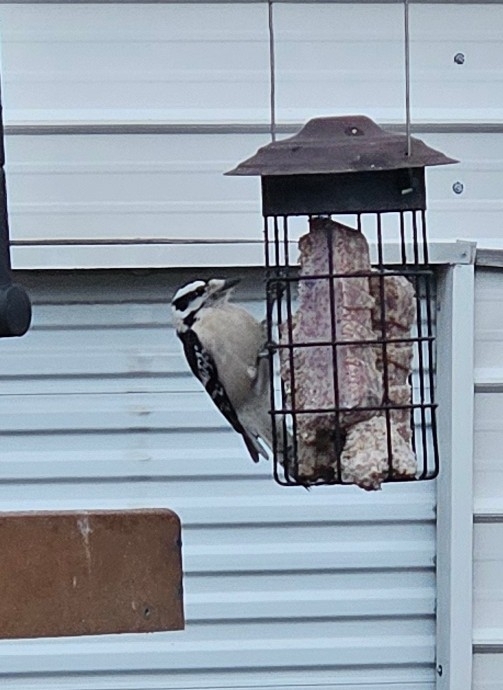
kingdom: Animalia
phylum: Chordata
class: Aves
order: Piciformes
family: Picidae
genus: Dryobates
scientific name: Dryobates pubescens
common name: Downy woodpecker
